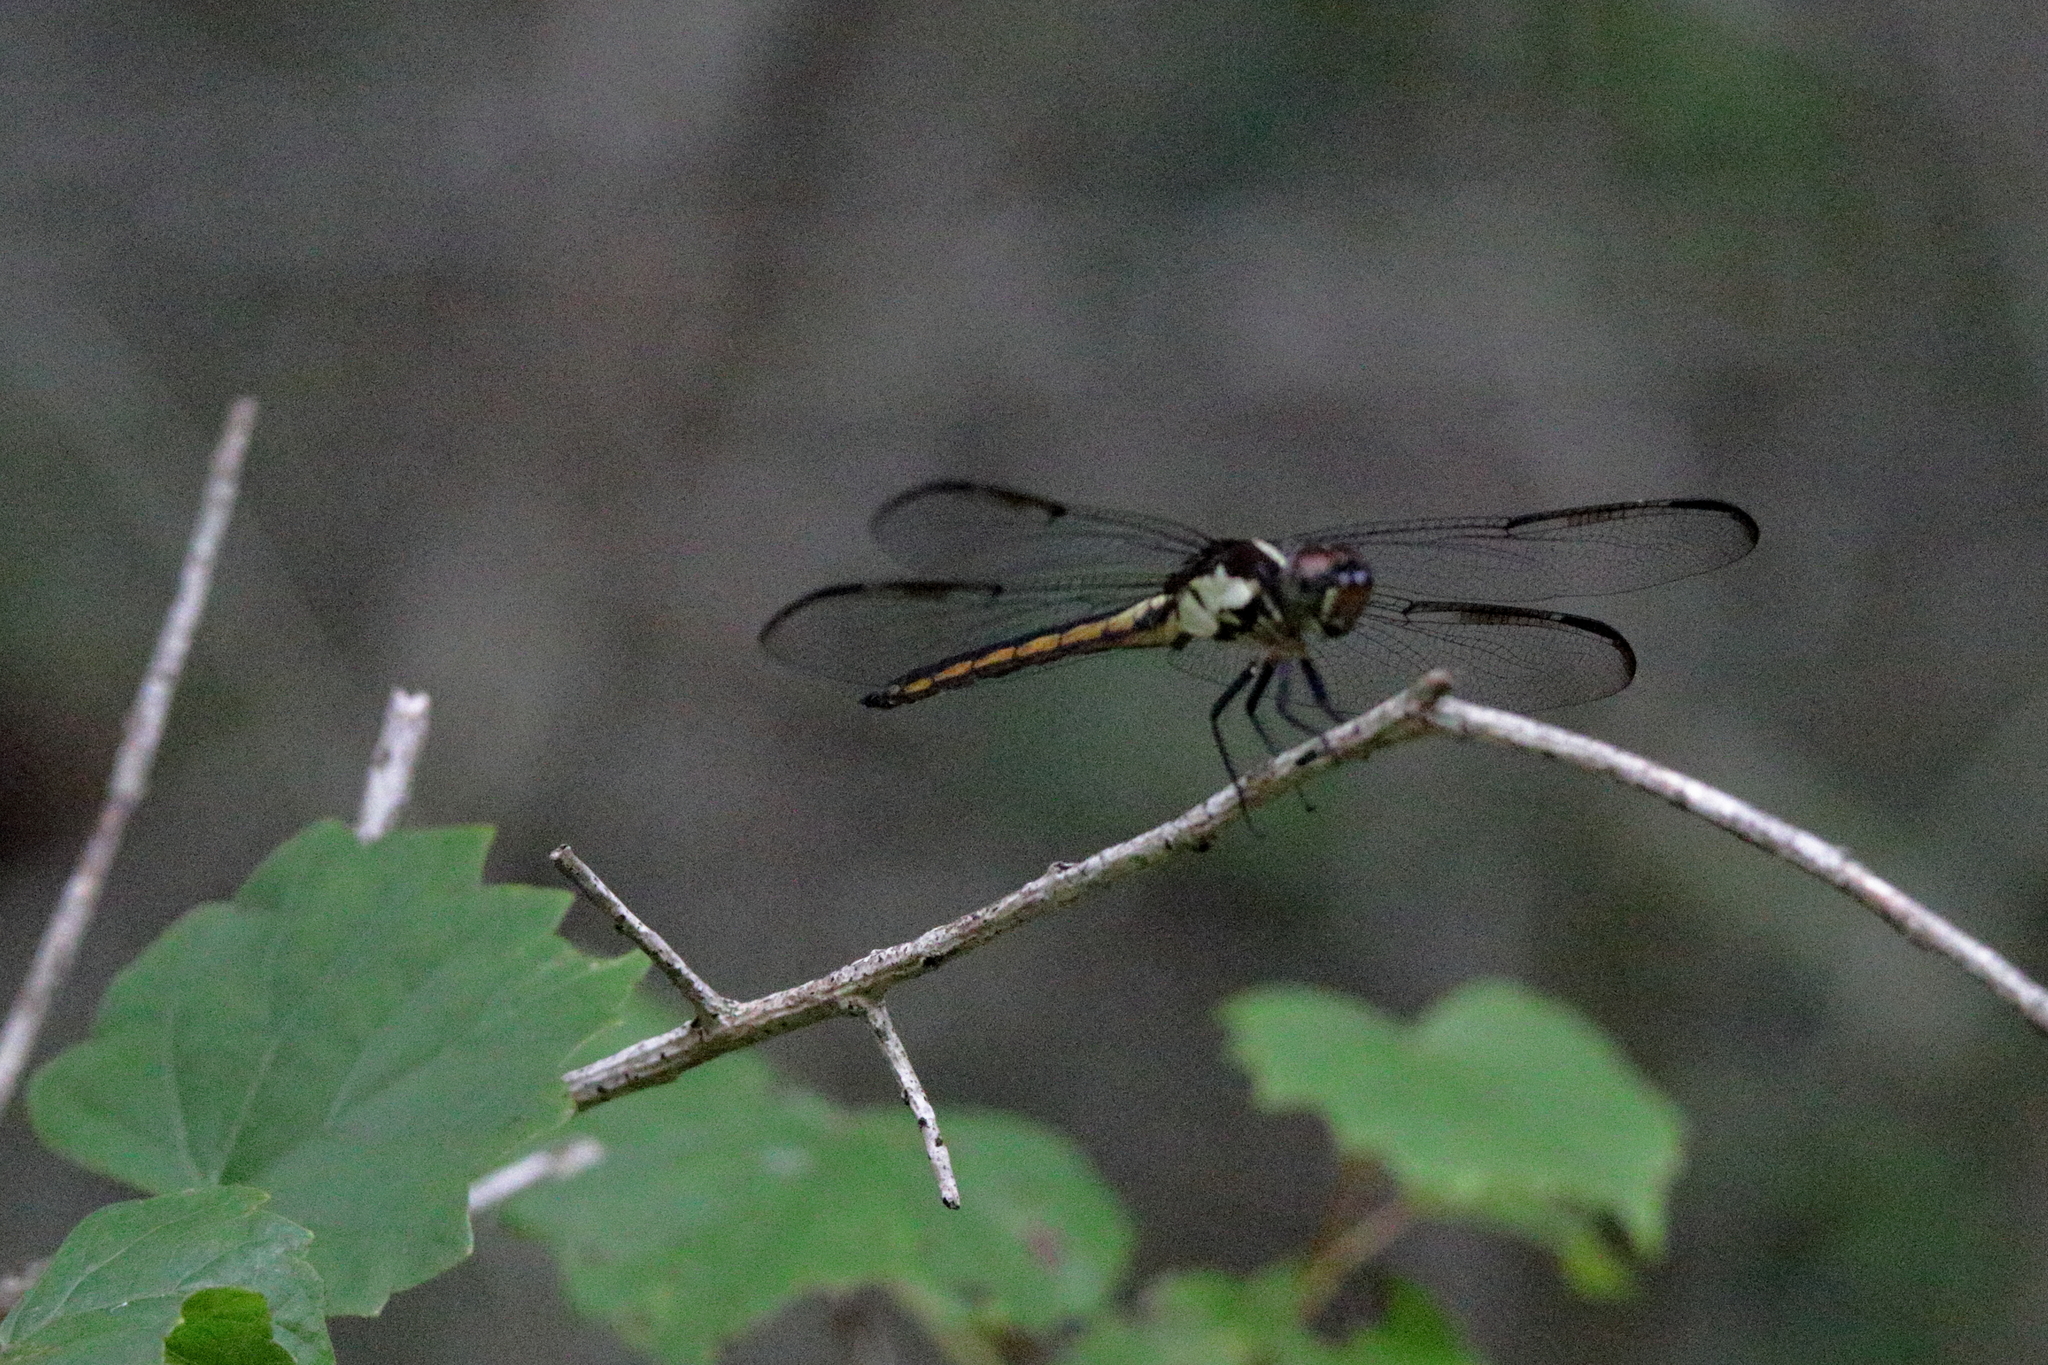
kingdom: Animalia
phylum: Arthropoda
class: Insecta
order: Odonata
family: Libellulidae
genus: Libellula
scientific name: Libellula incesta
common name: Slaty skimmer
